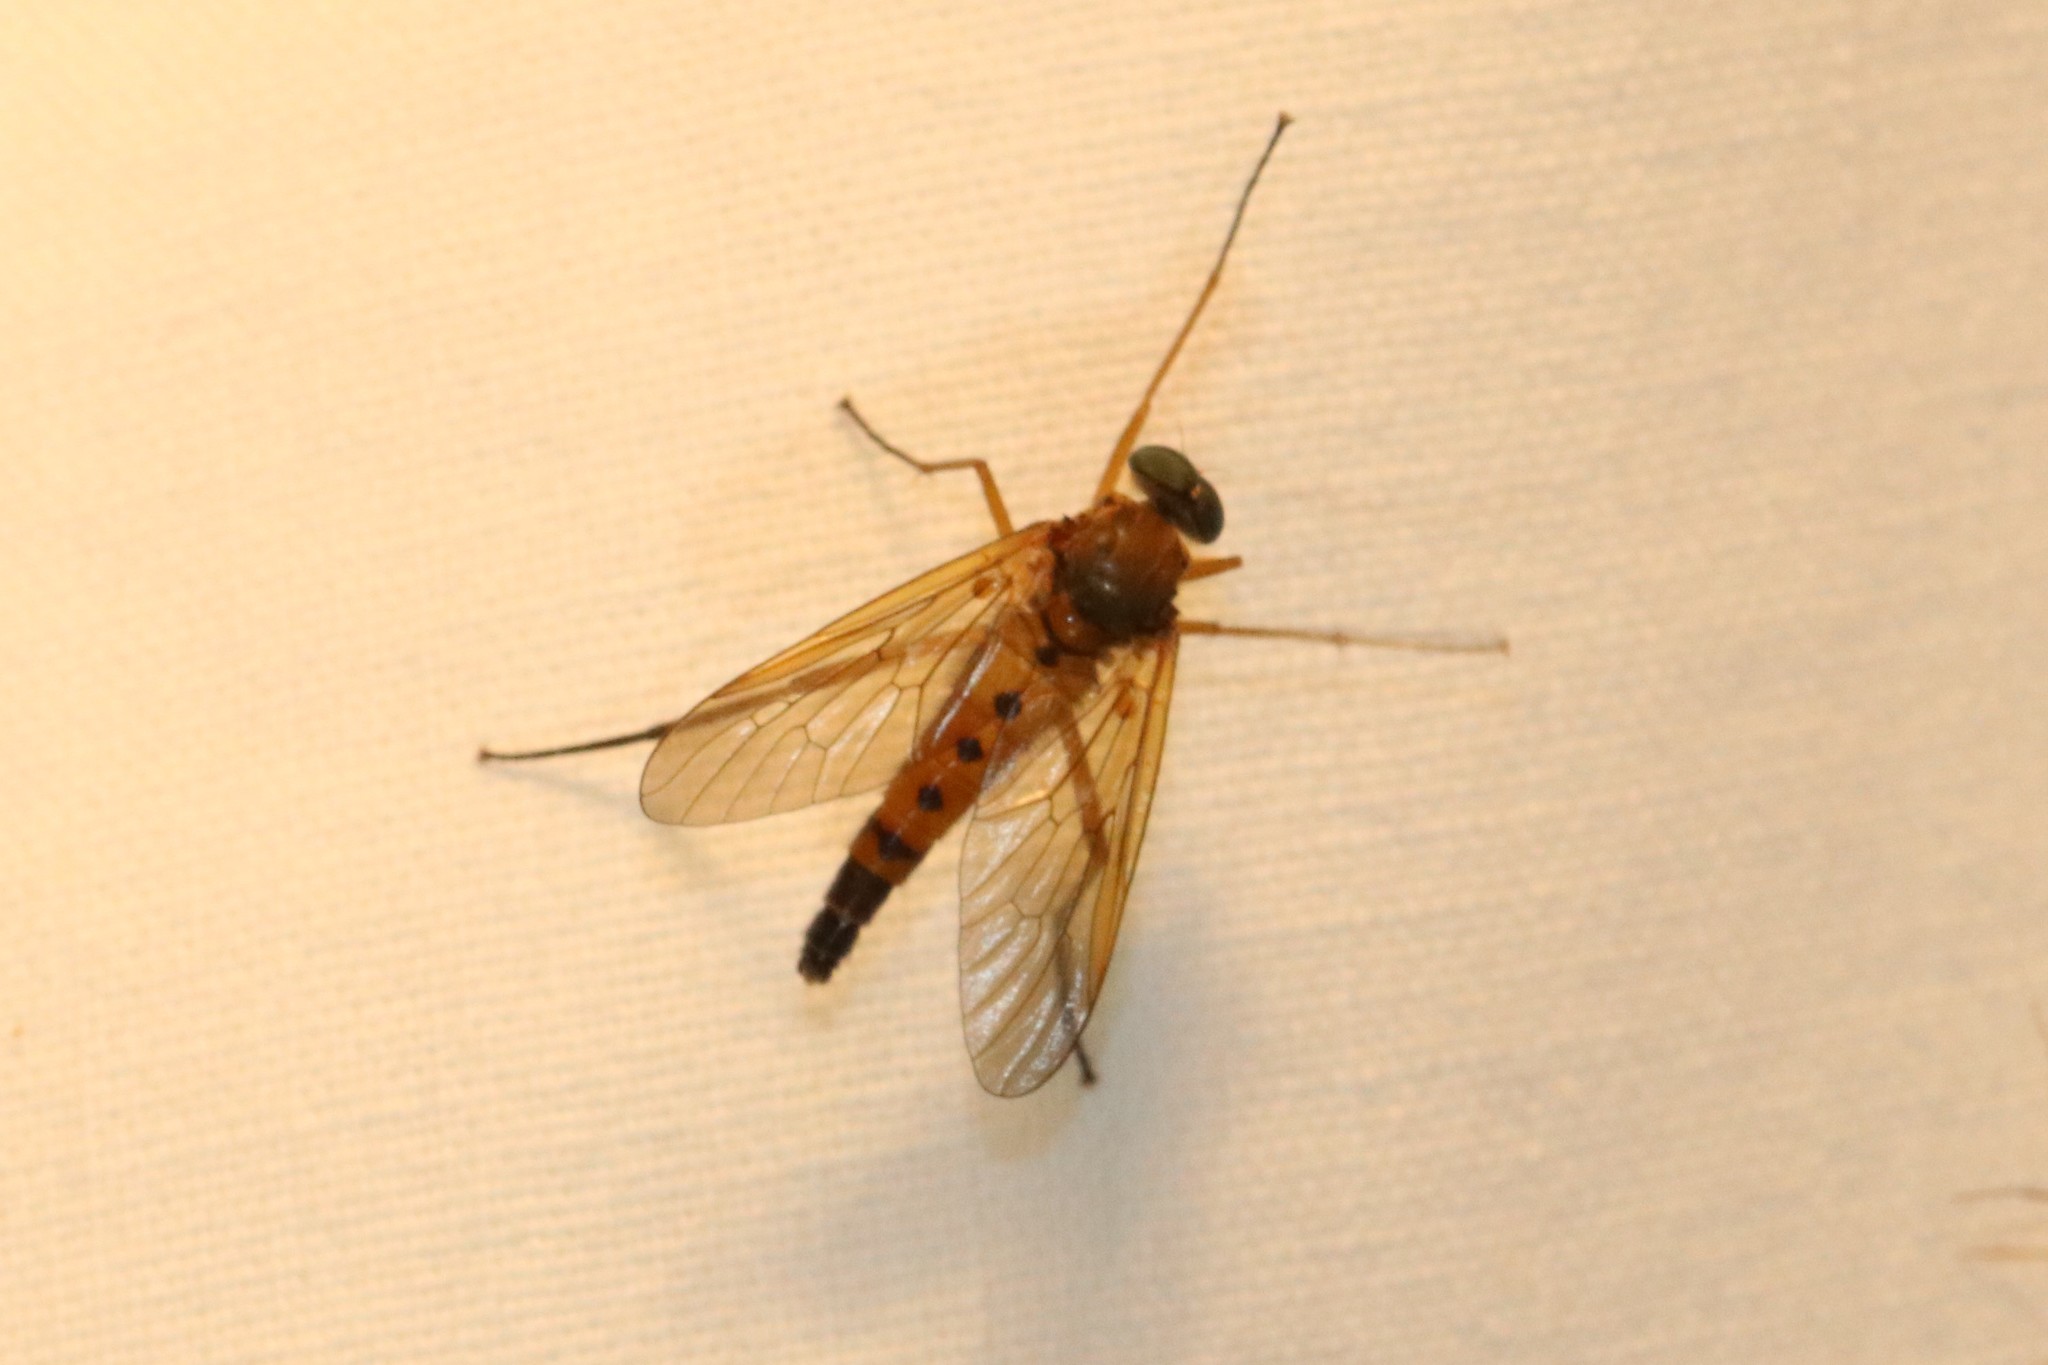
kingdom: Animalia
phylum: Arthropoda
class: Insecta
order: Diptera
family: Rhagionidae
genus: Rhagio
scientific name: Rhagio tringaria
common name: Marsh snipefly
